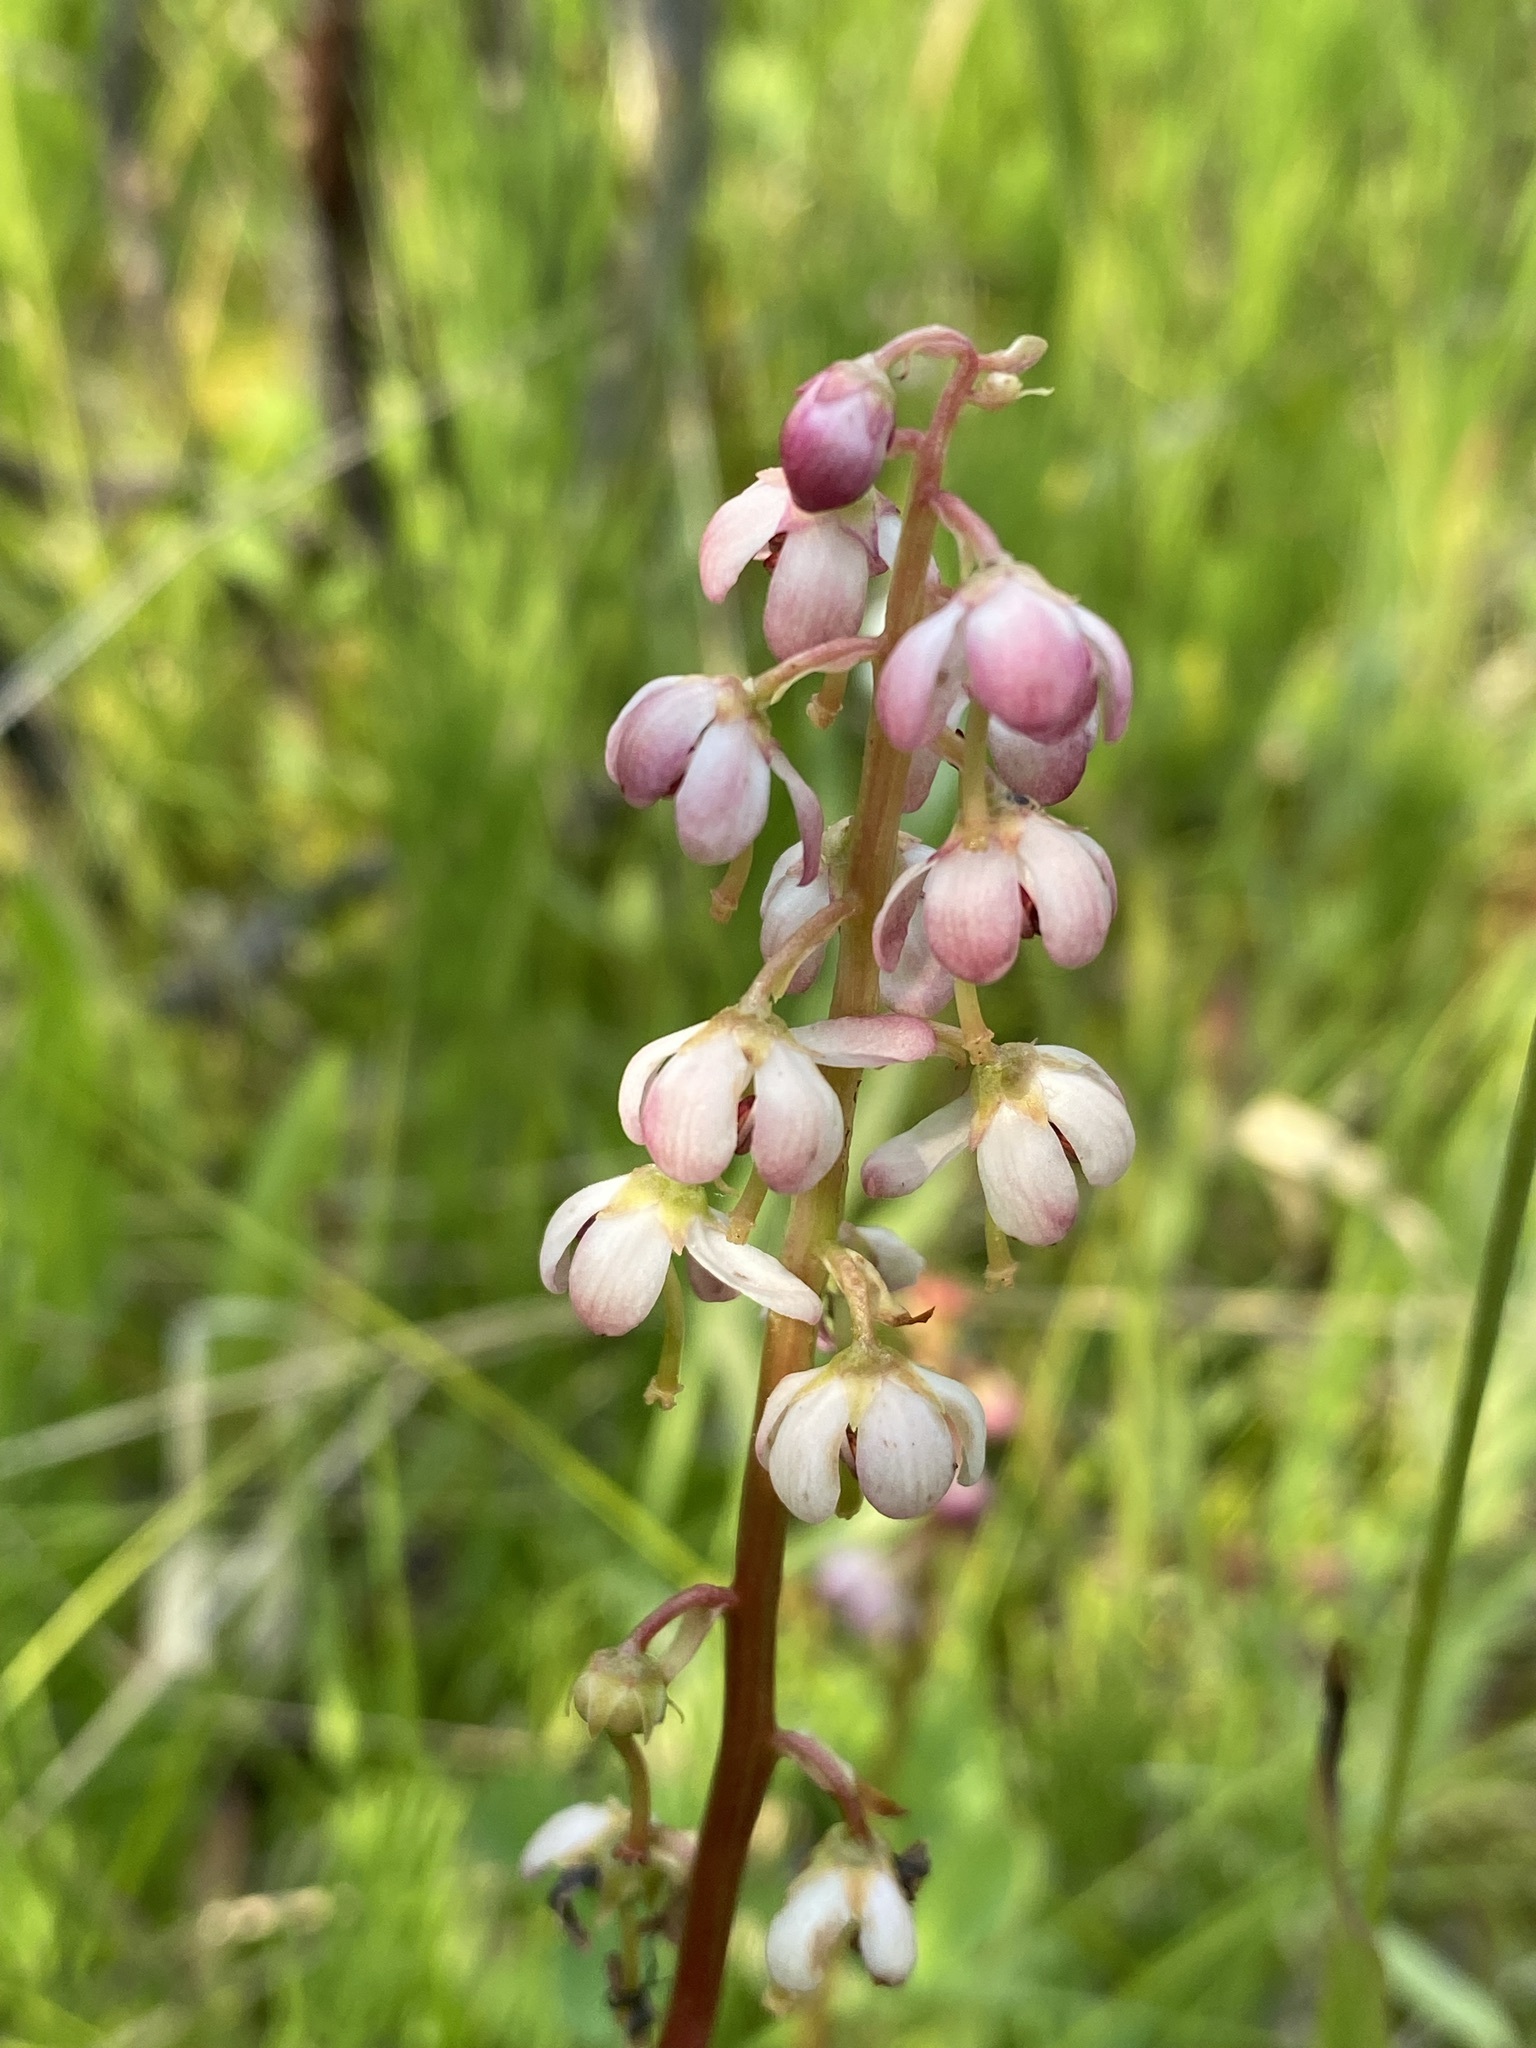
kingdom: Plantae
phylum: Tracheophyta
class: Magnoliopsida
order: Ericales
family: Ericaceae
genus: Pyrola
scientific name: Pyrola asarifolia
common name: Bog wintergreen
